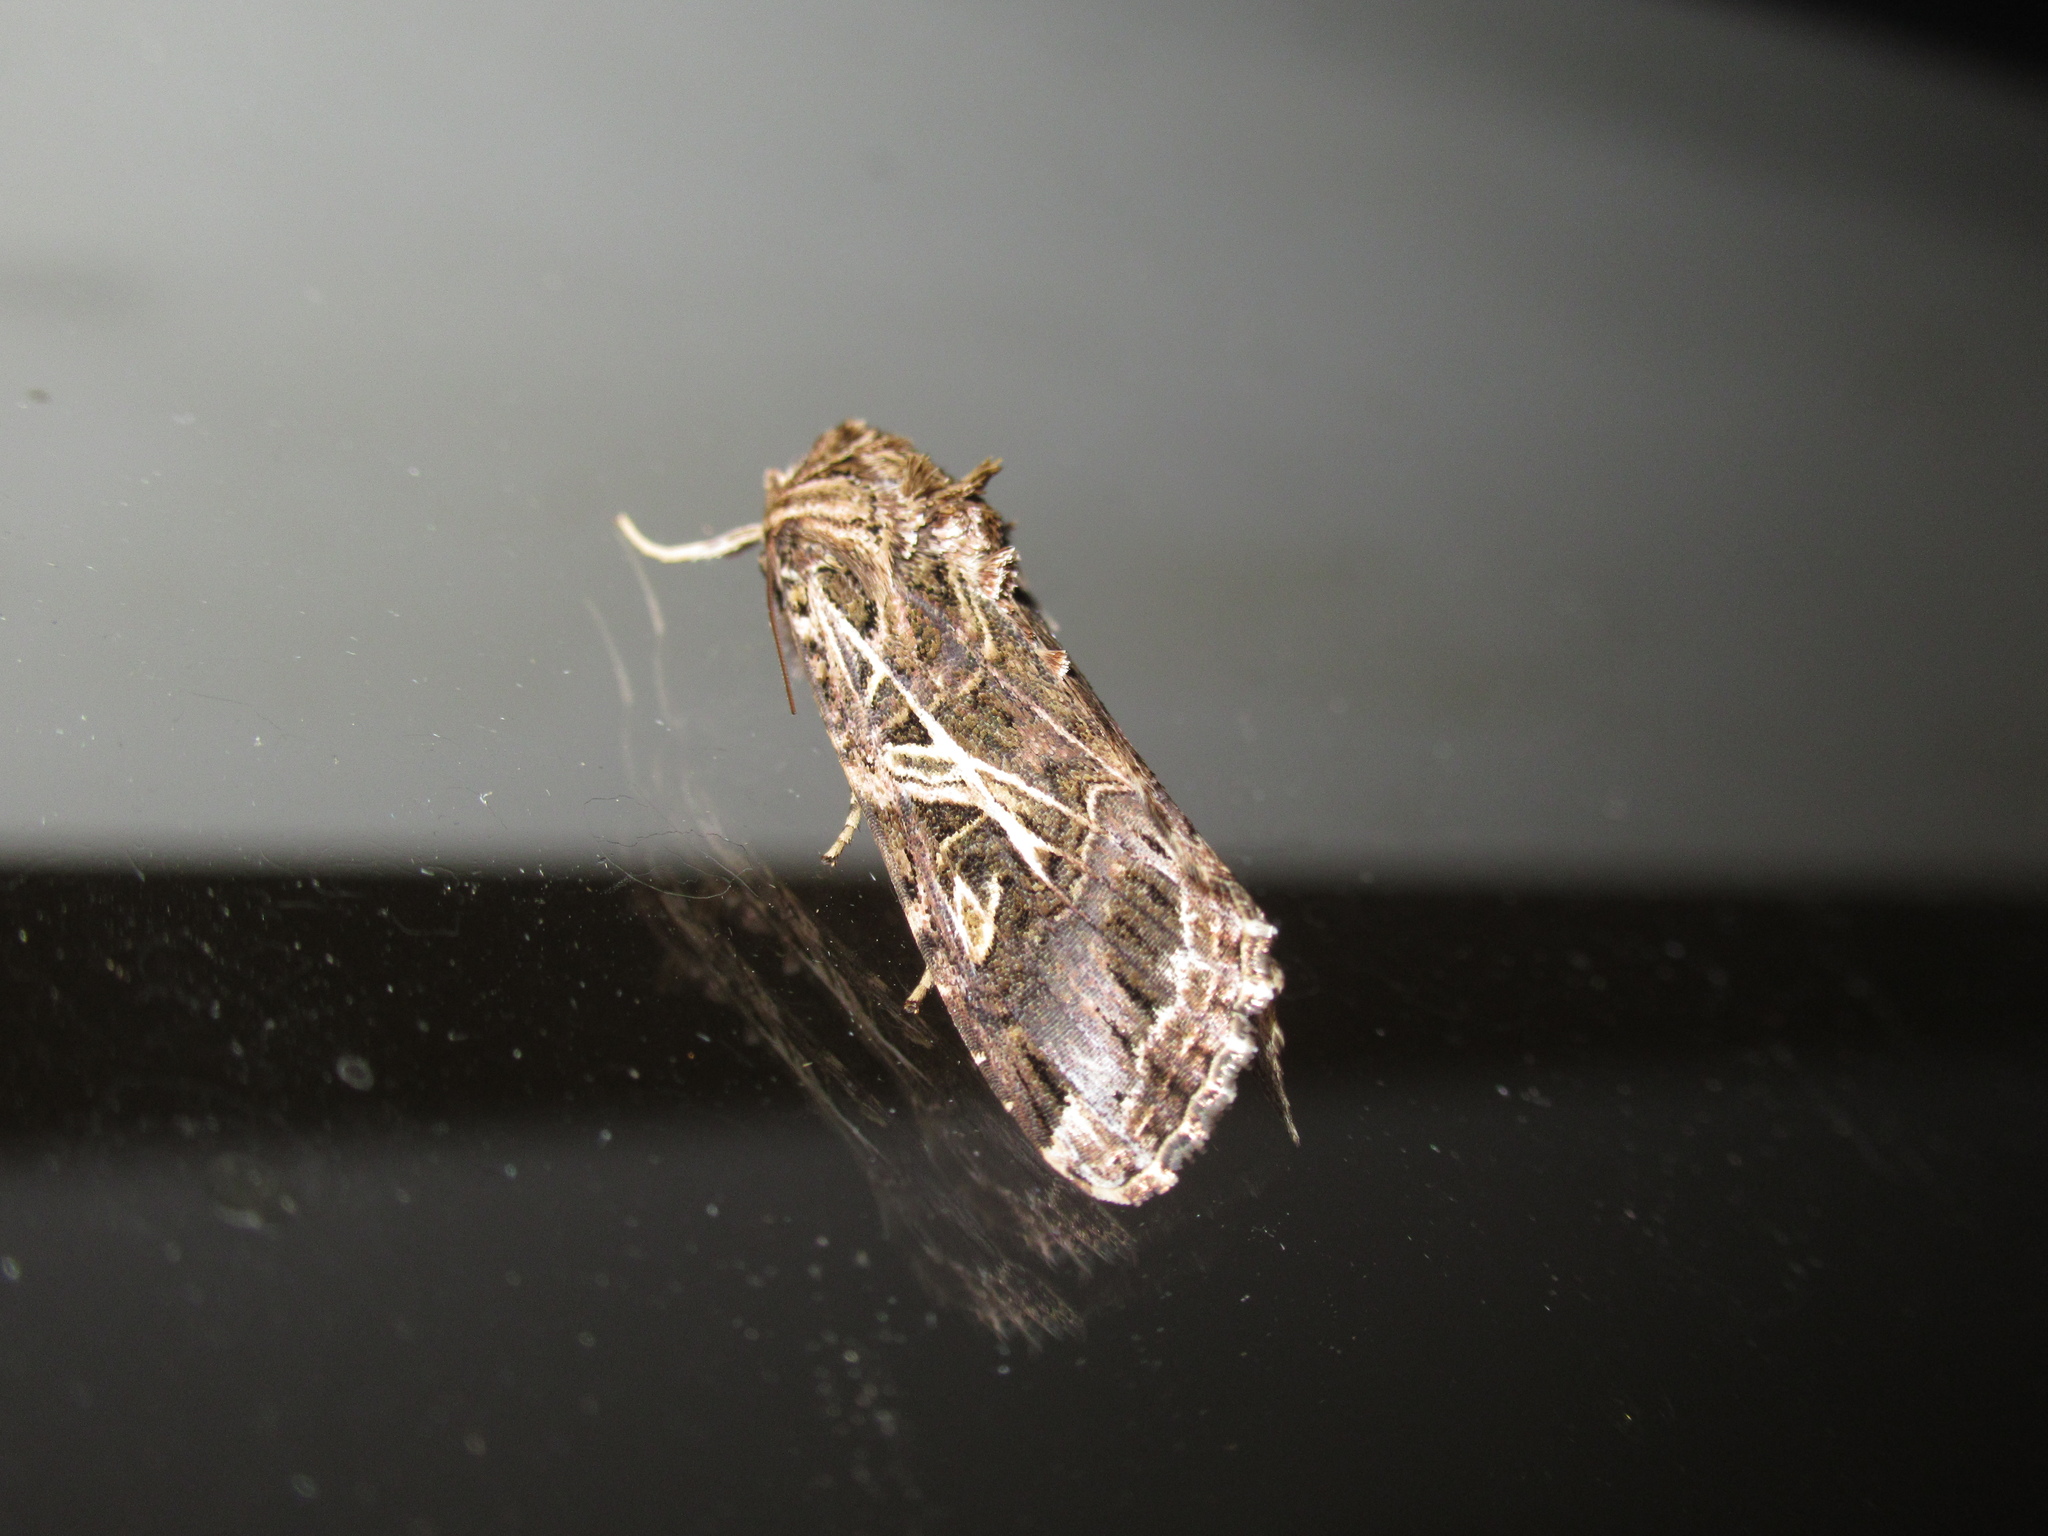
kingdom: Animalia
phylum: Arthropoda
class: Insecta
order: Lepidoptera
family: Noctuidae
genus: Spodoptera
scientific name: Spodoptera litura
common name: Asian cotton leafworm
